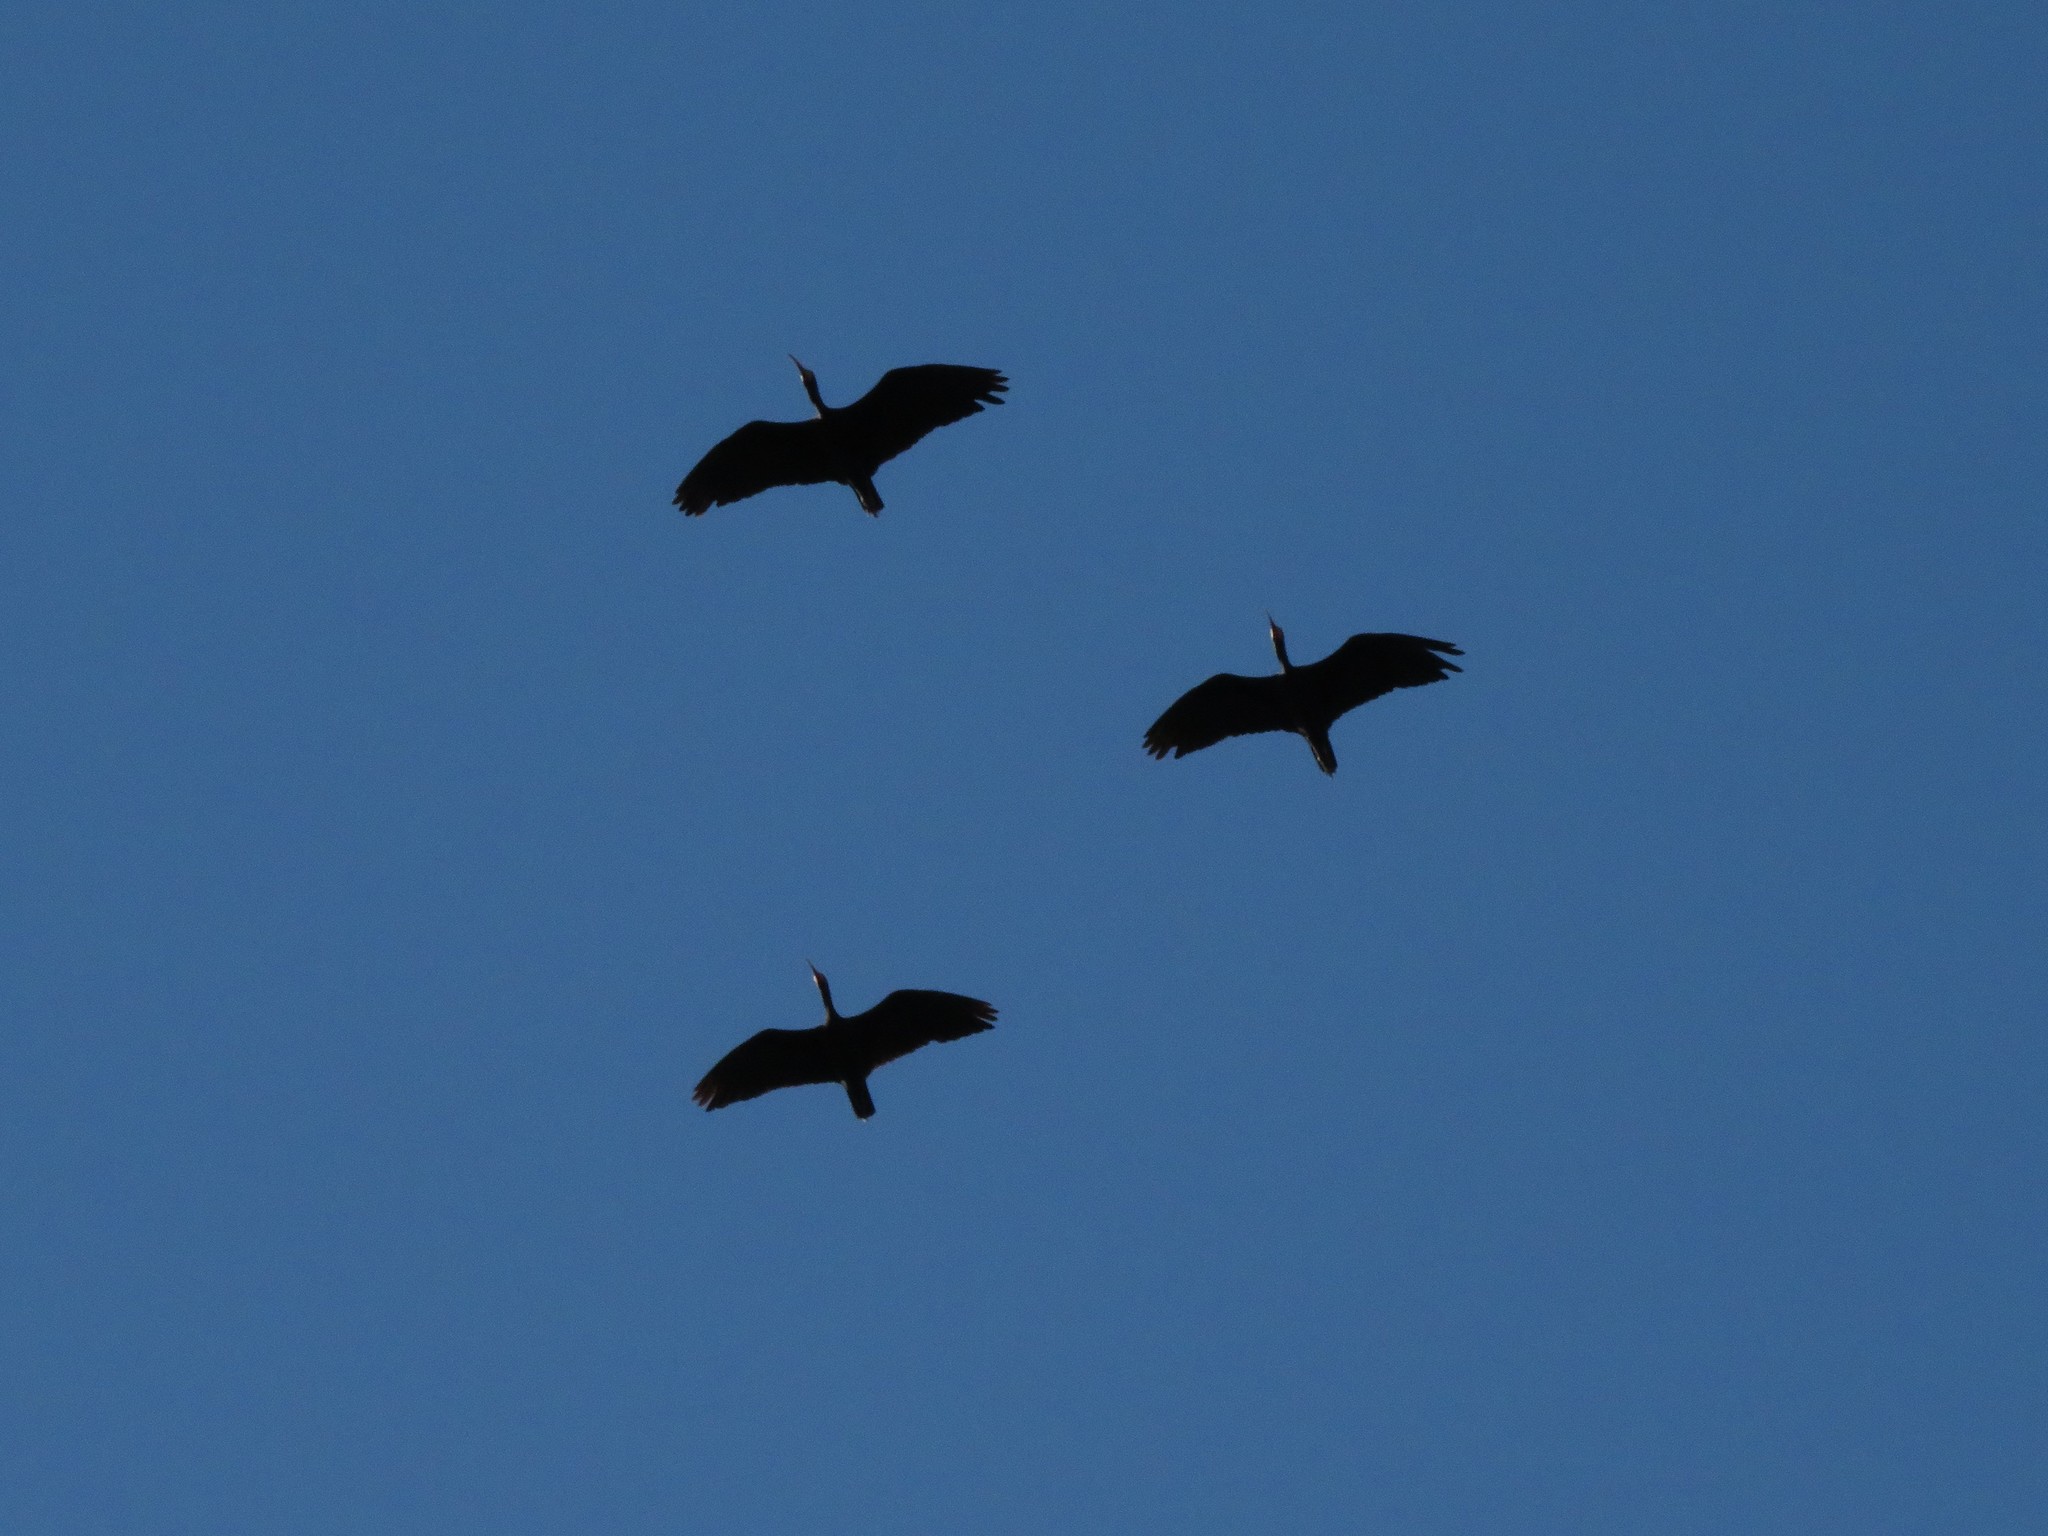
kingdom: Animalia
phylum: Chordata
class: Aves
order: Pelecaniformes
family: Threskiornithidae
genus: Phimosus
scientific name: Phimosus infuscatus
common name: Bare-faced ibis
